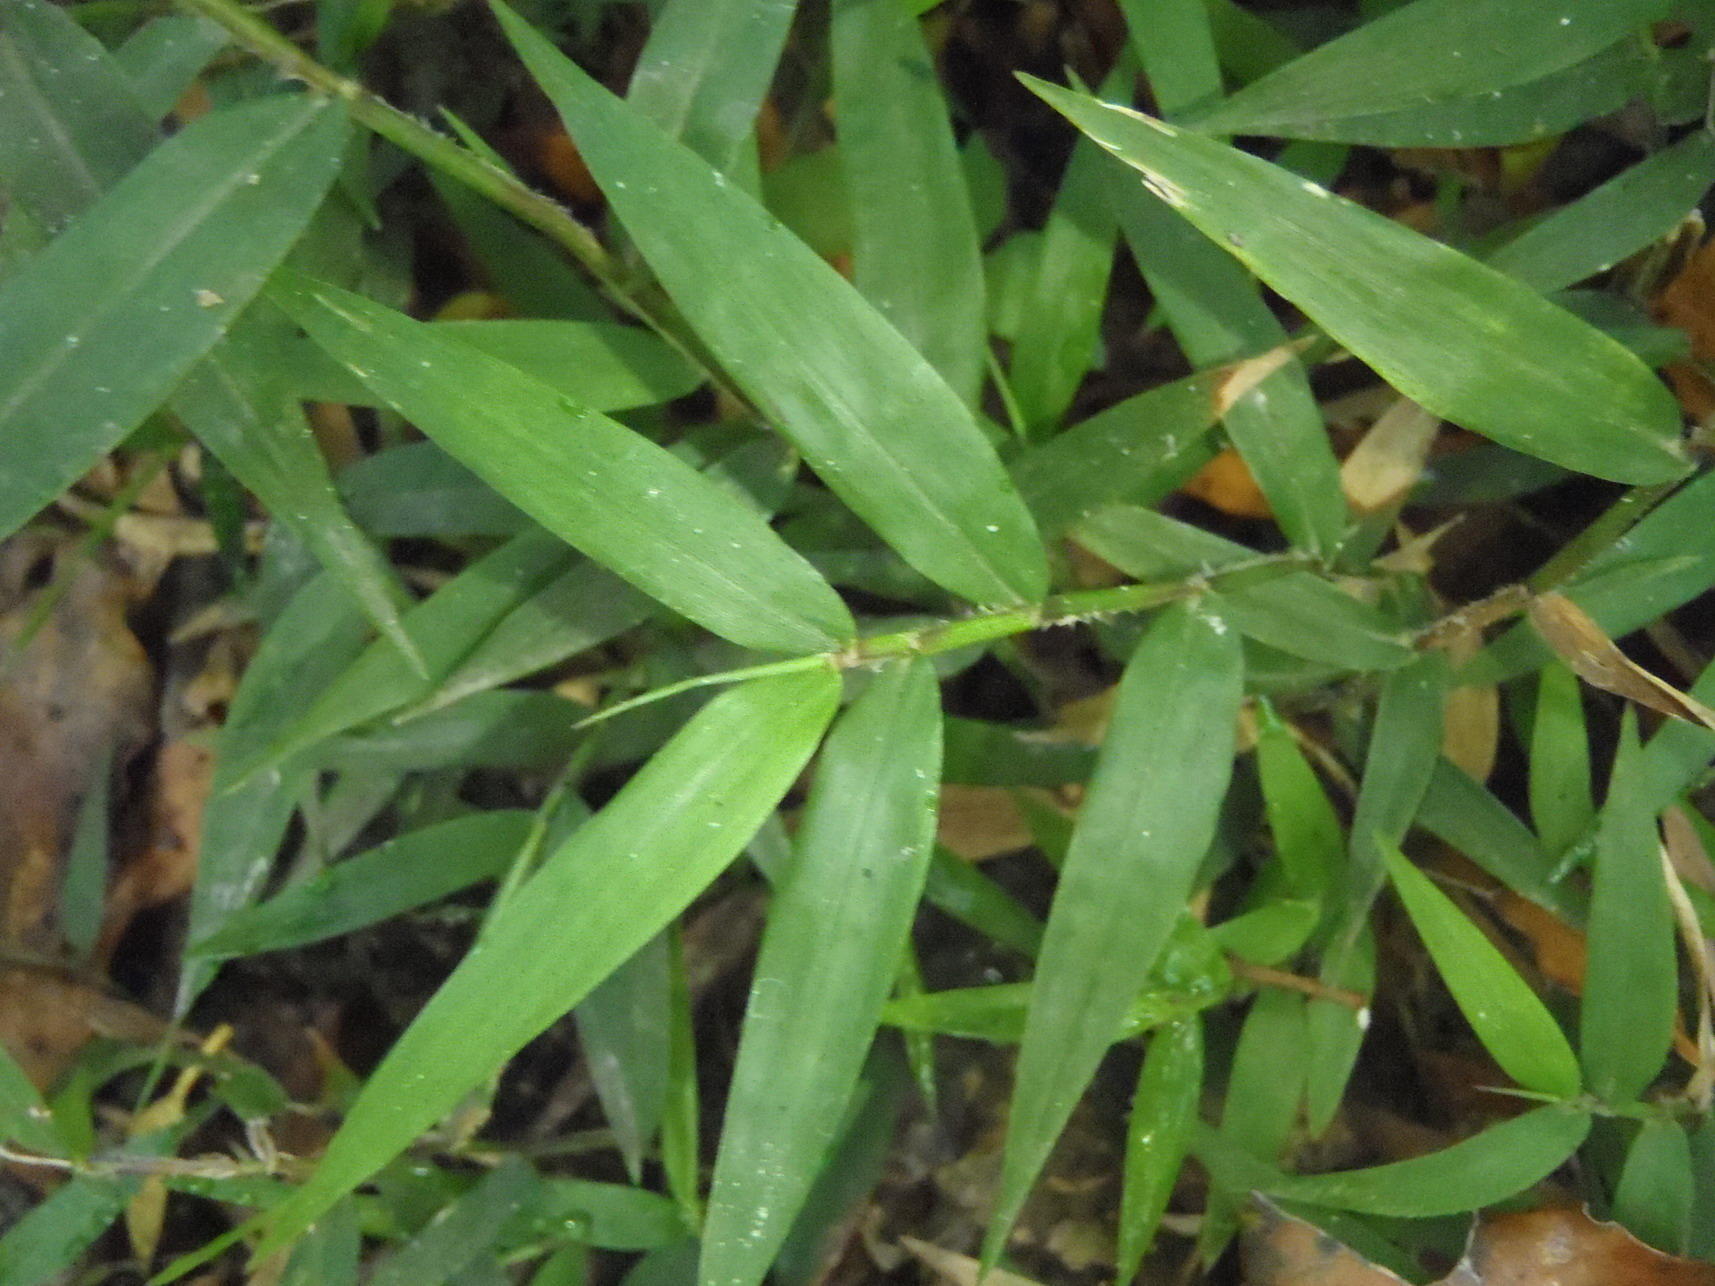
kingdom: Plantae
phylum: Tracheophyta
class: Liliopsida
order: Poales
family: Poaceae
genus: Oplismenus
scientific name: Oplismenus hirtellus
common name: Basketgrass
